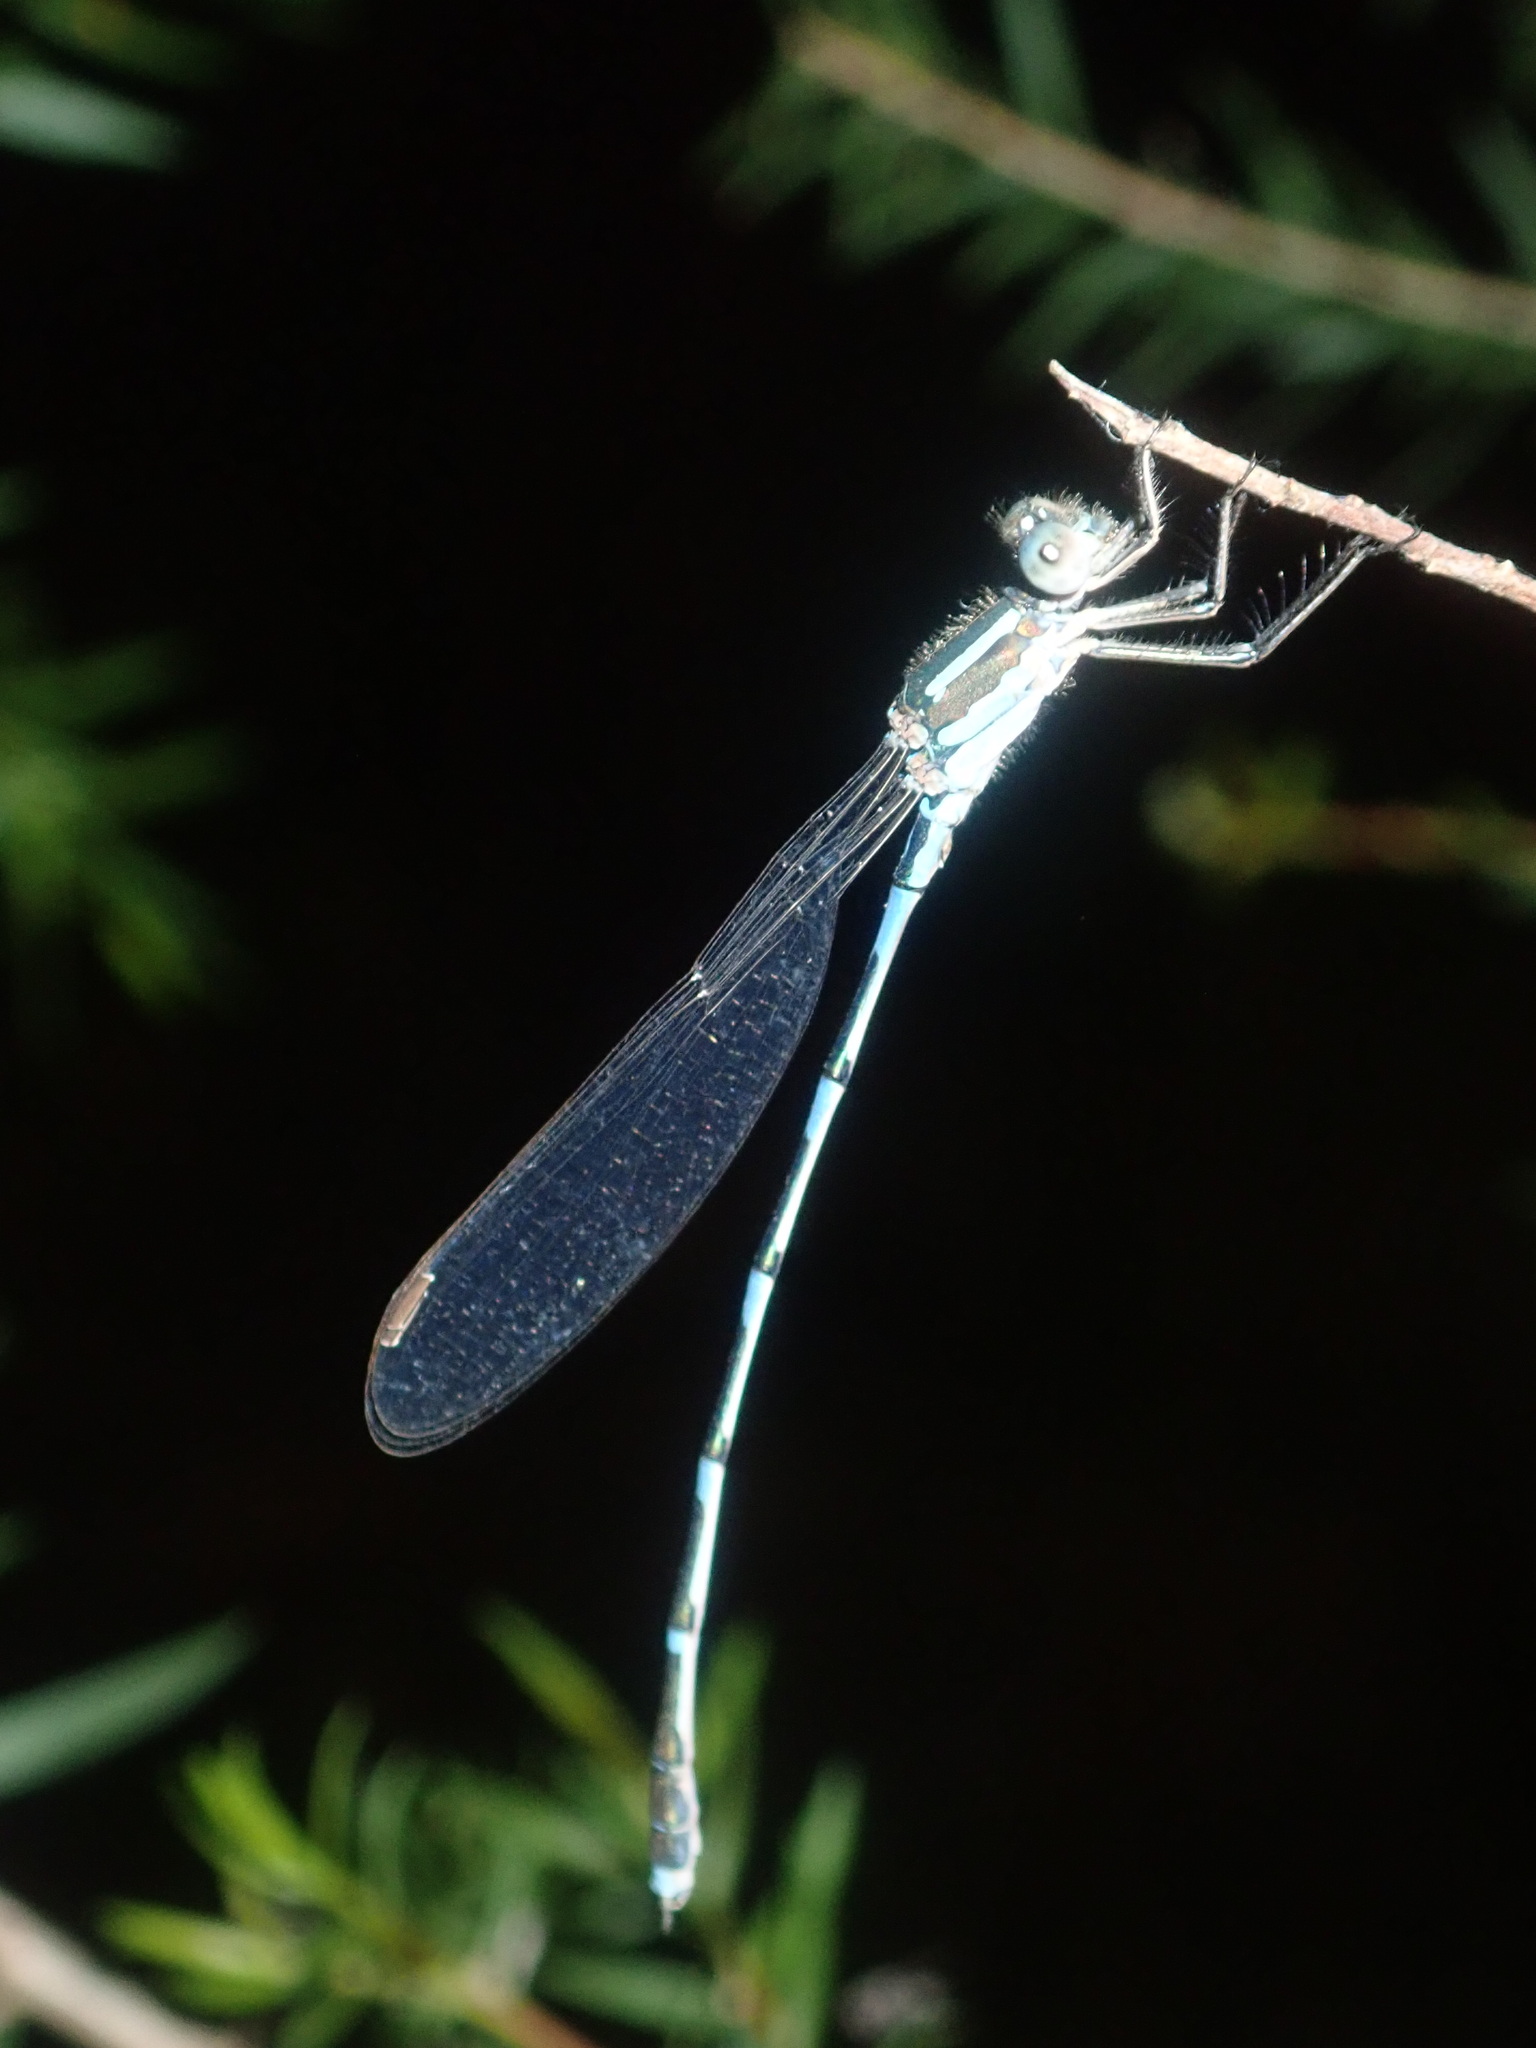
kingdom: Animalia
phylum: Arthropoda
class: Insecta
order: Odonata
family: Lestidae
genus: Austrolestes
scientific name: Austrolestes leda
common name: Wandering ringtail
